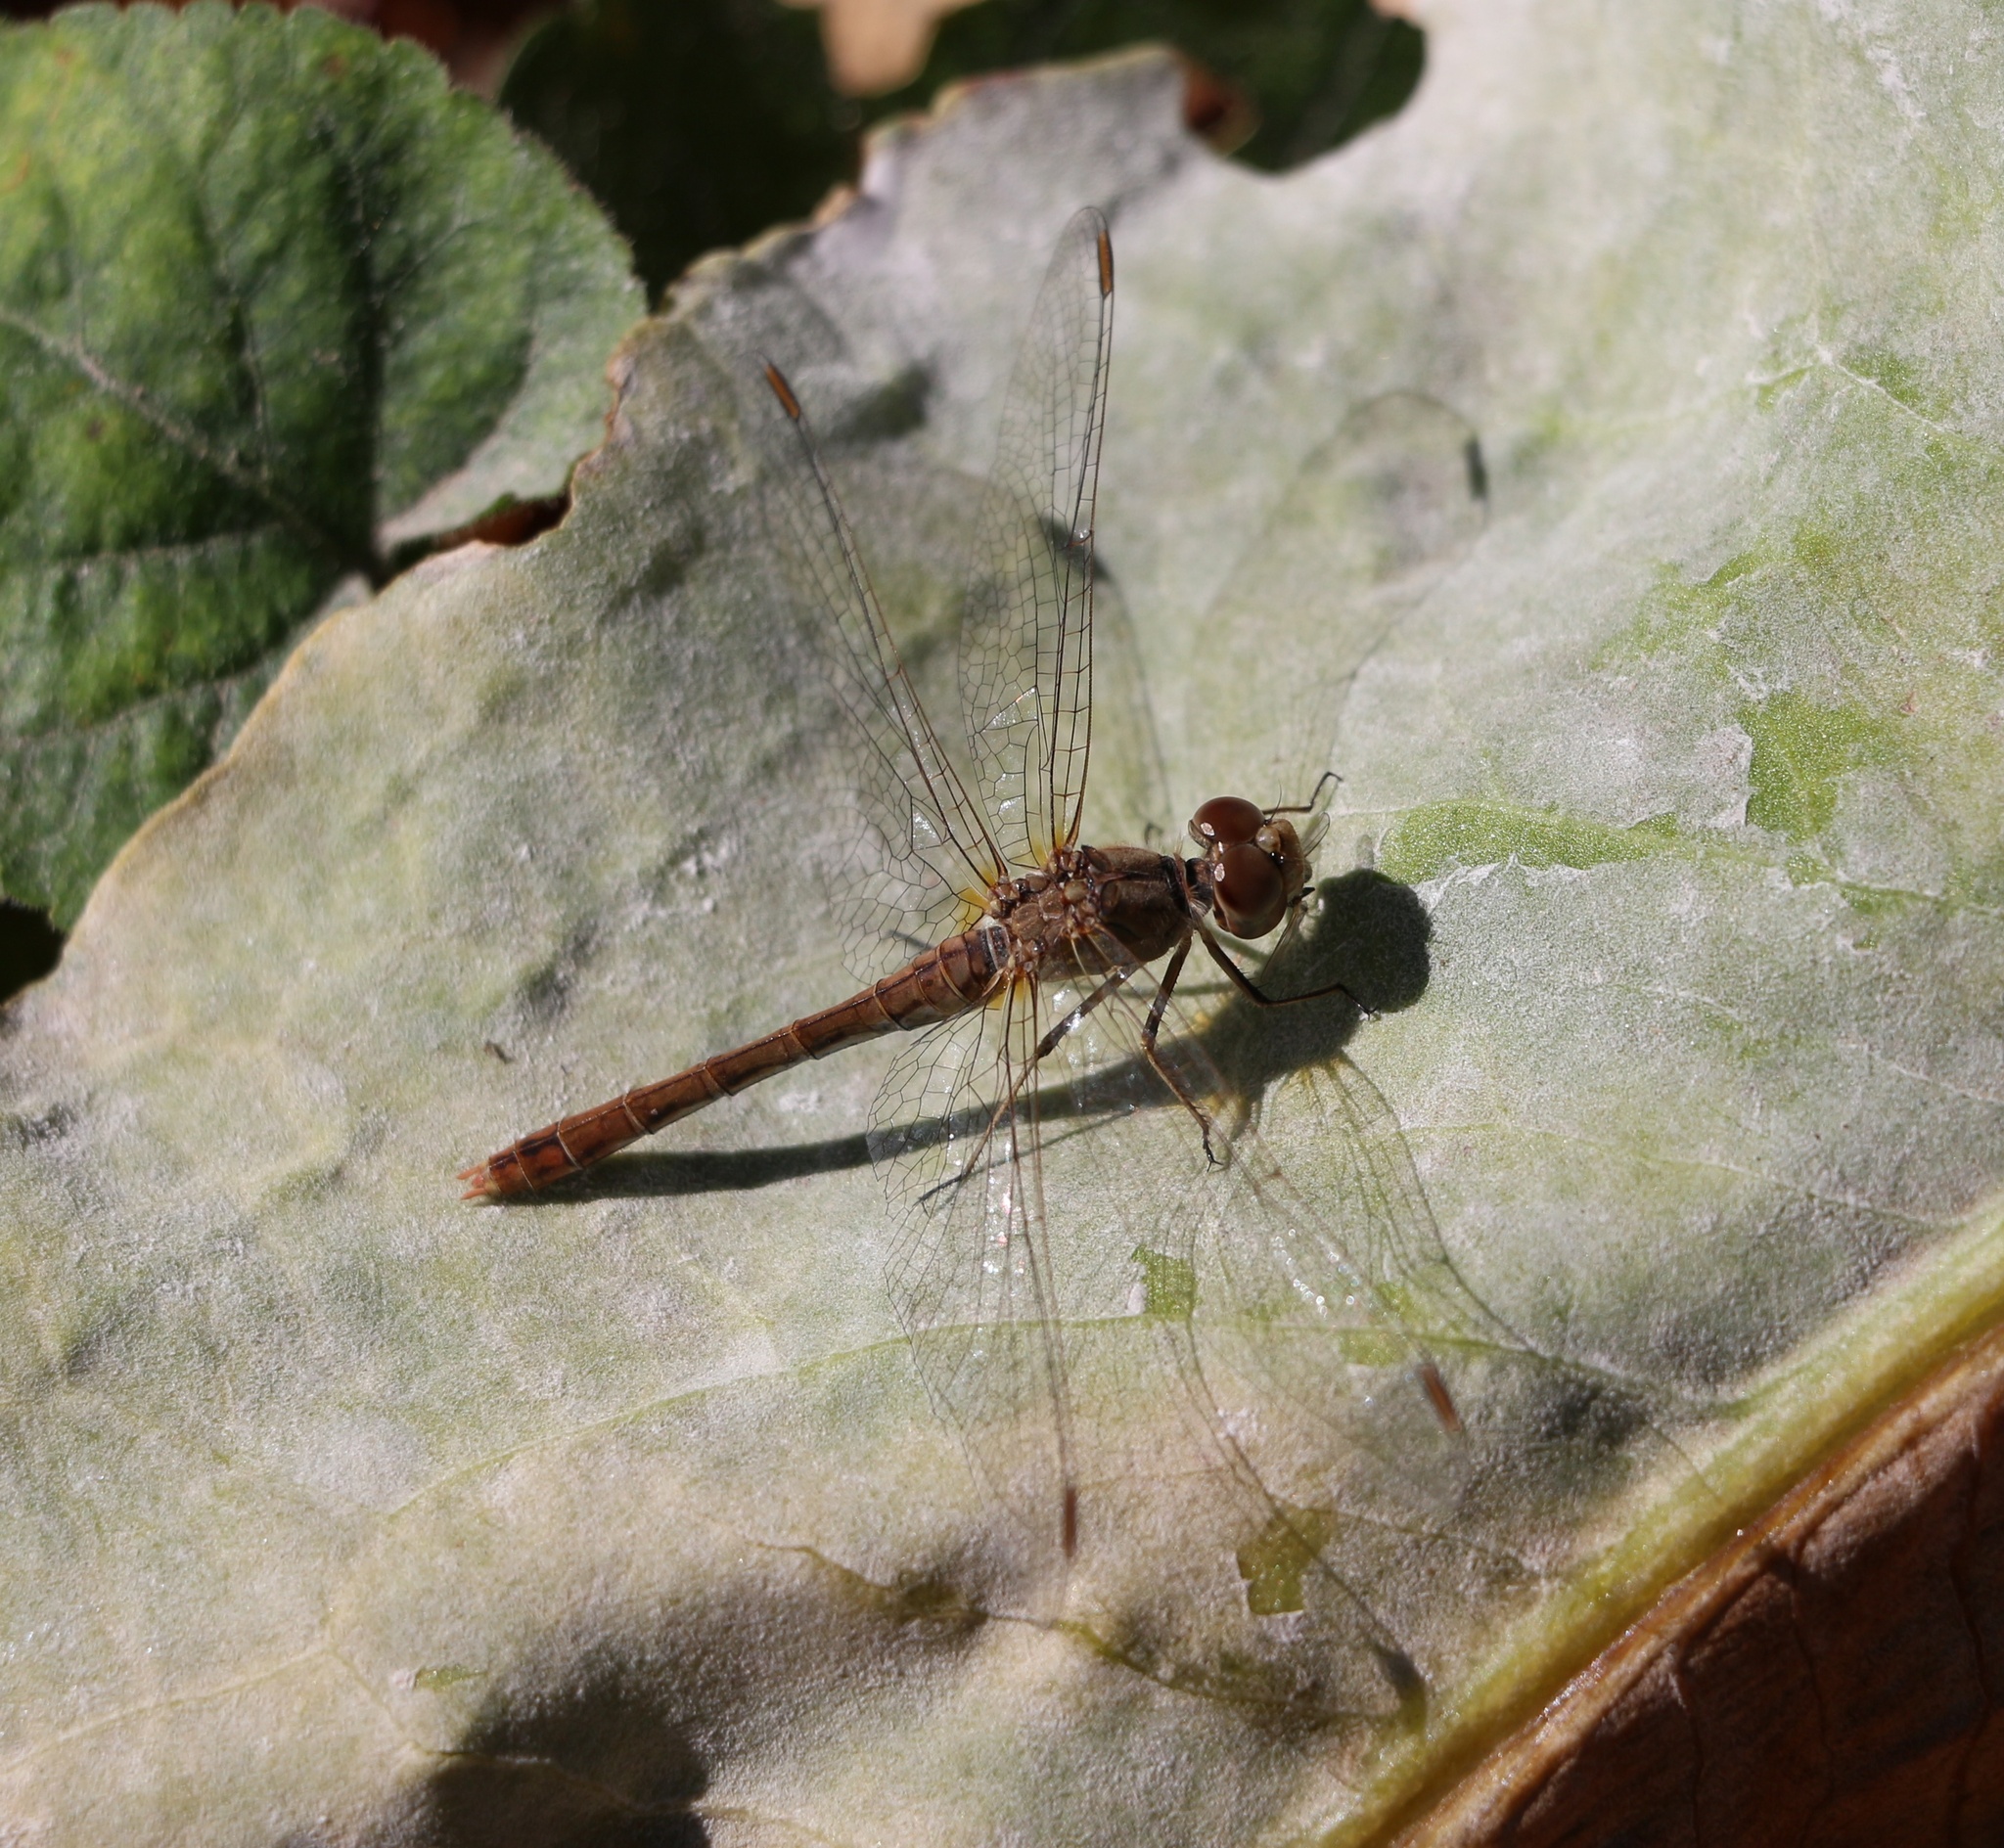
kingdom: Animalia
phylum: Arthropoda
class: Insecta
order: Odonata
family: Libellulidae
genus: Sympetrum
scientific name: Sympetrum meridionale
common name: Southern darter
